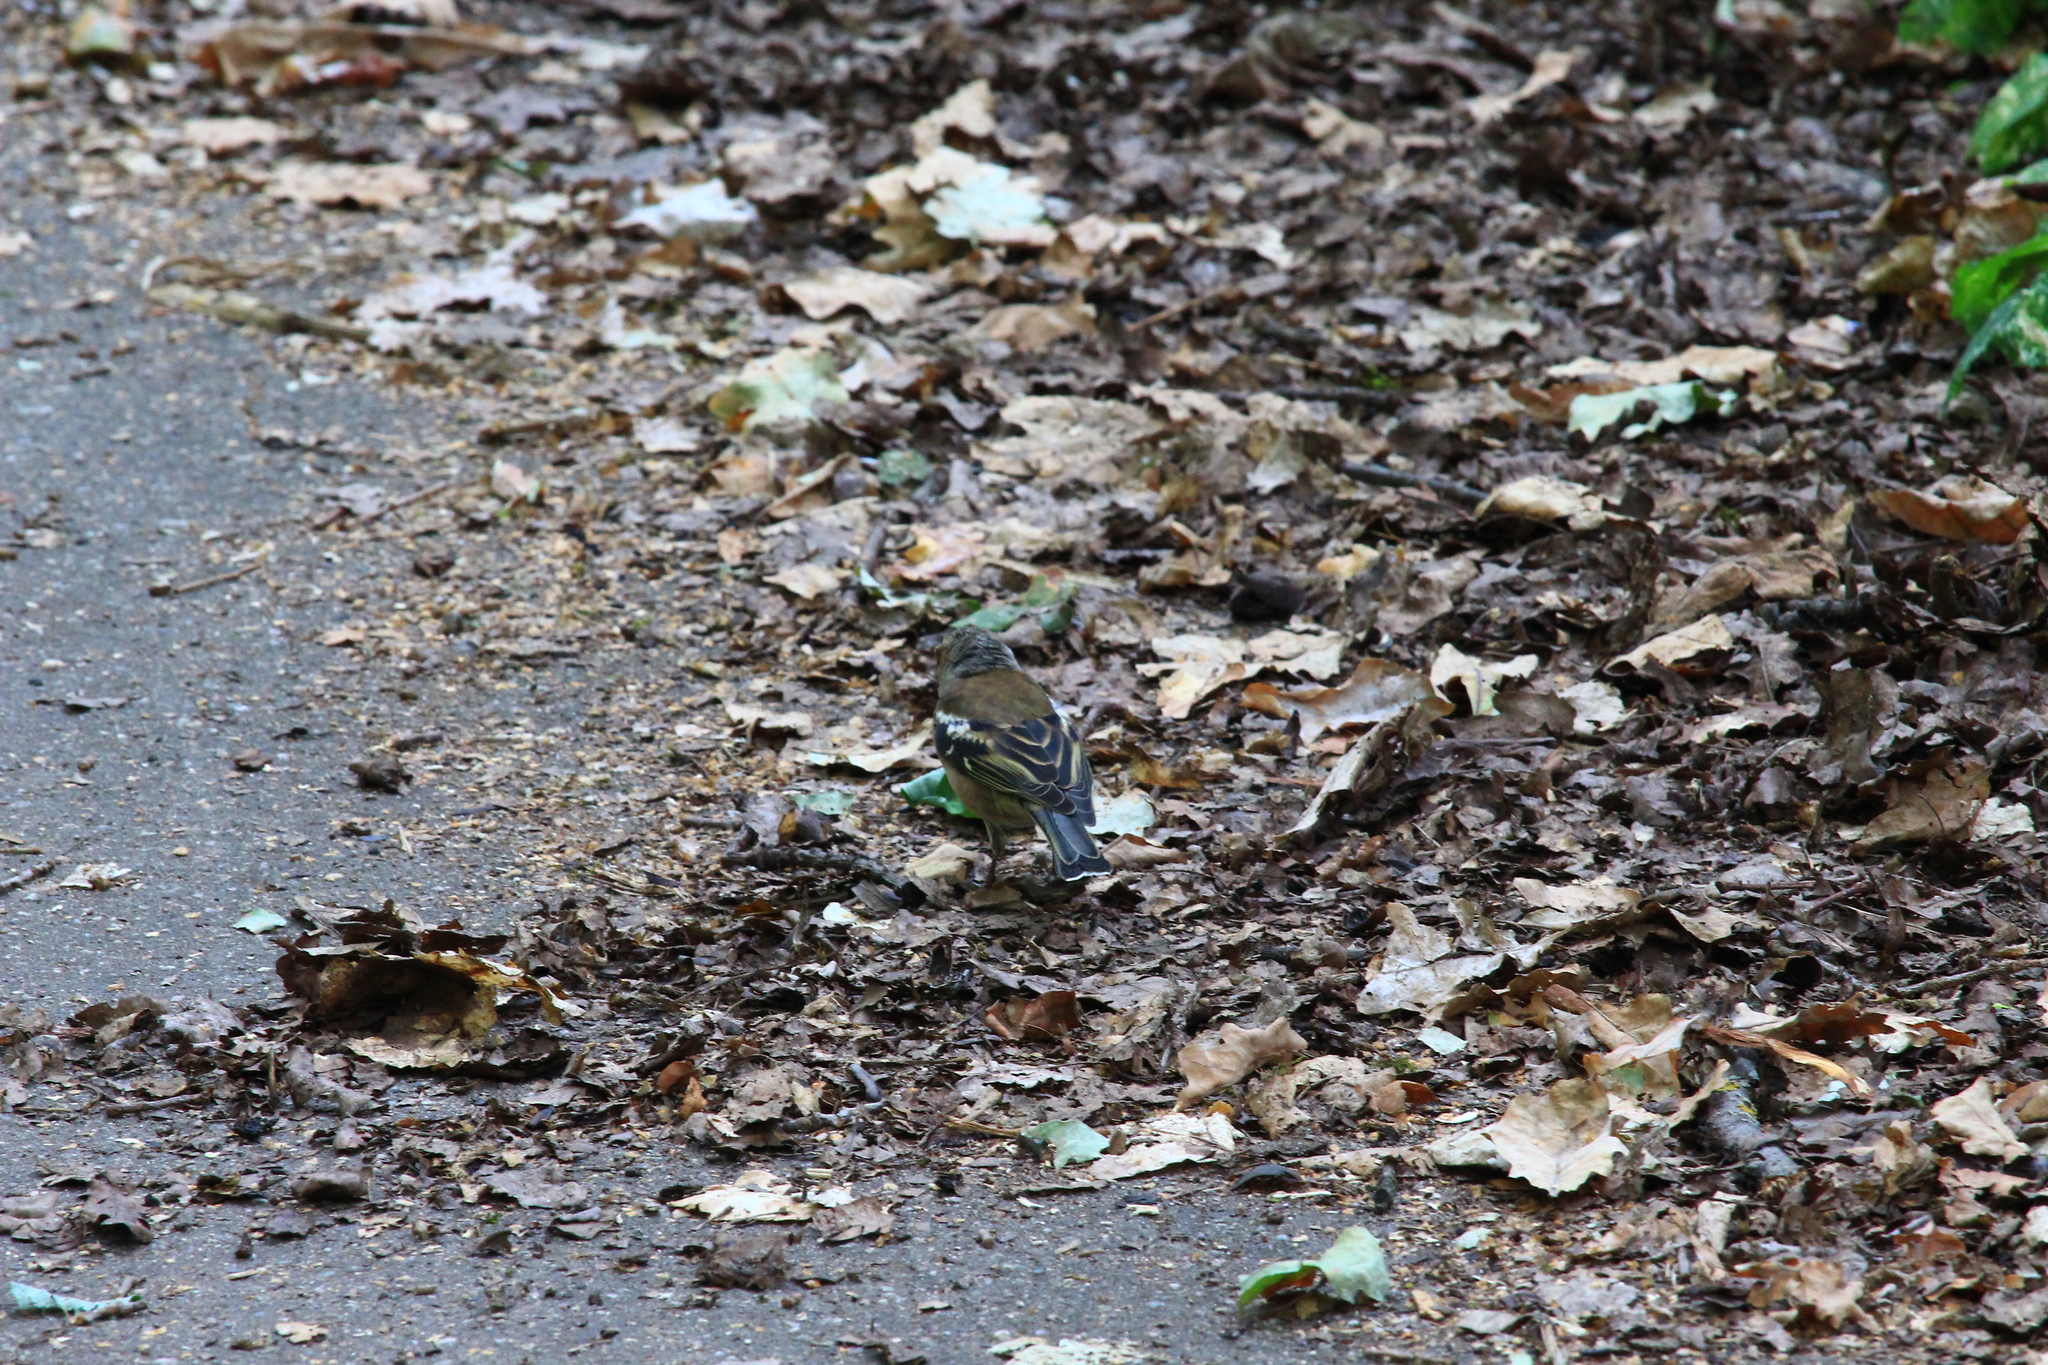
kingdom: Animalia
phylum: Chordata
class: Aves
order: Passeriformes
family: Fringillidae
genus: Fringilla
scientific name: Fringilla coelebs
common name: Common chaffinch
